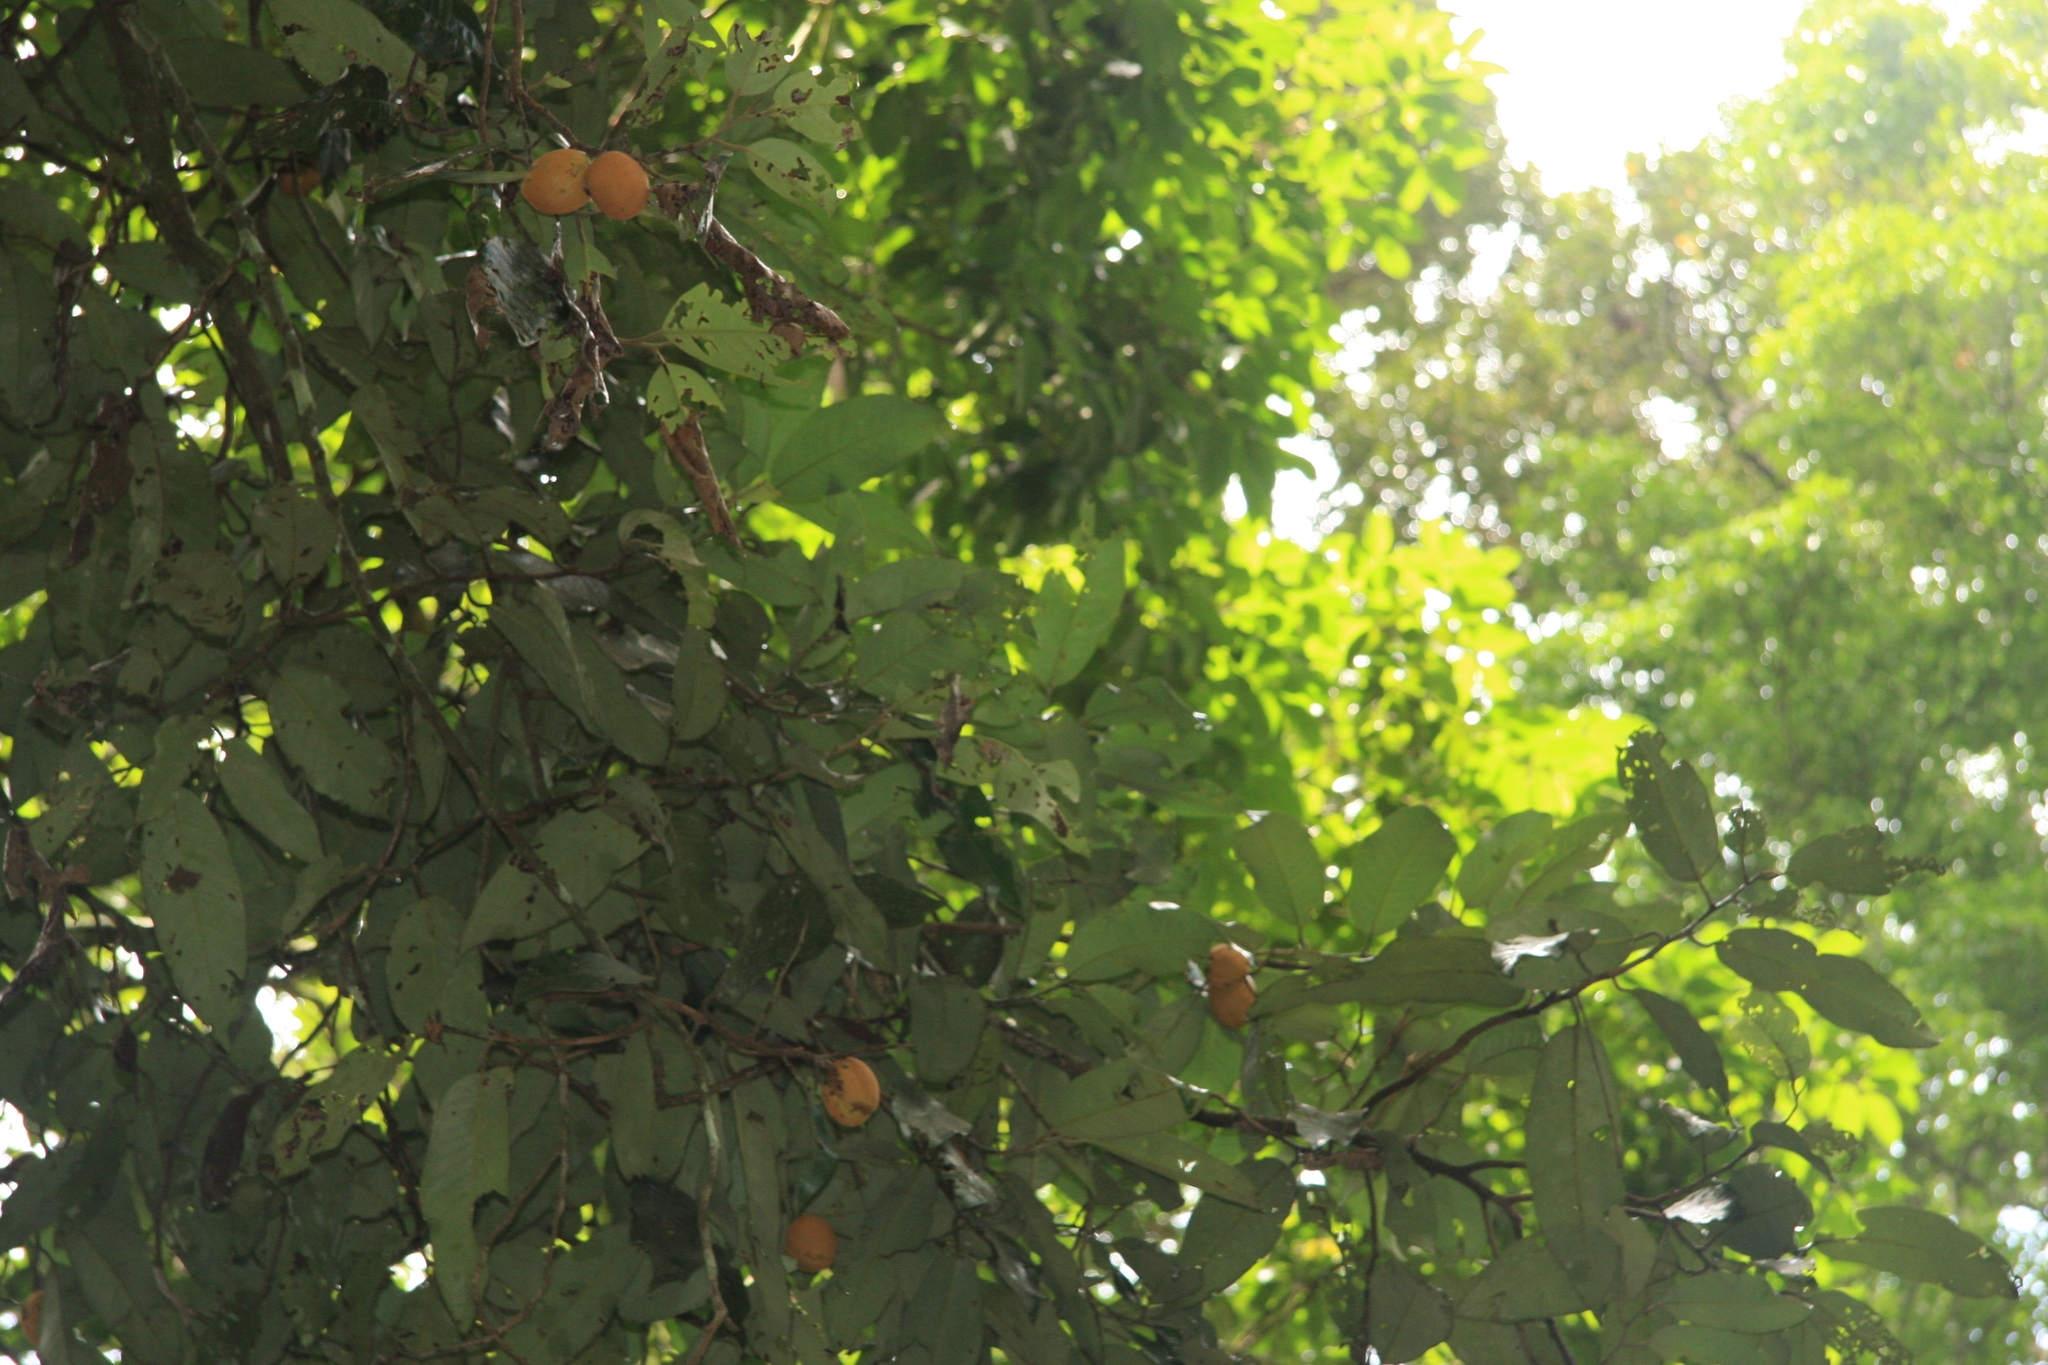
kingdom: Plantae
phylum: Tracheophyta
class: Magnoliopsida
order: Magnoliales
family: Myristicaceae
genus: Myristica
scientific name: Myristica beddomei
